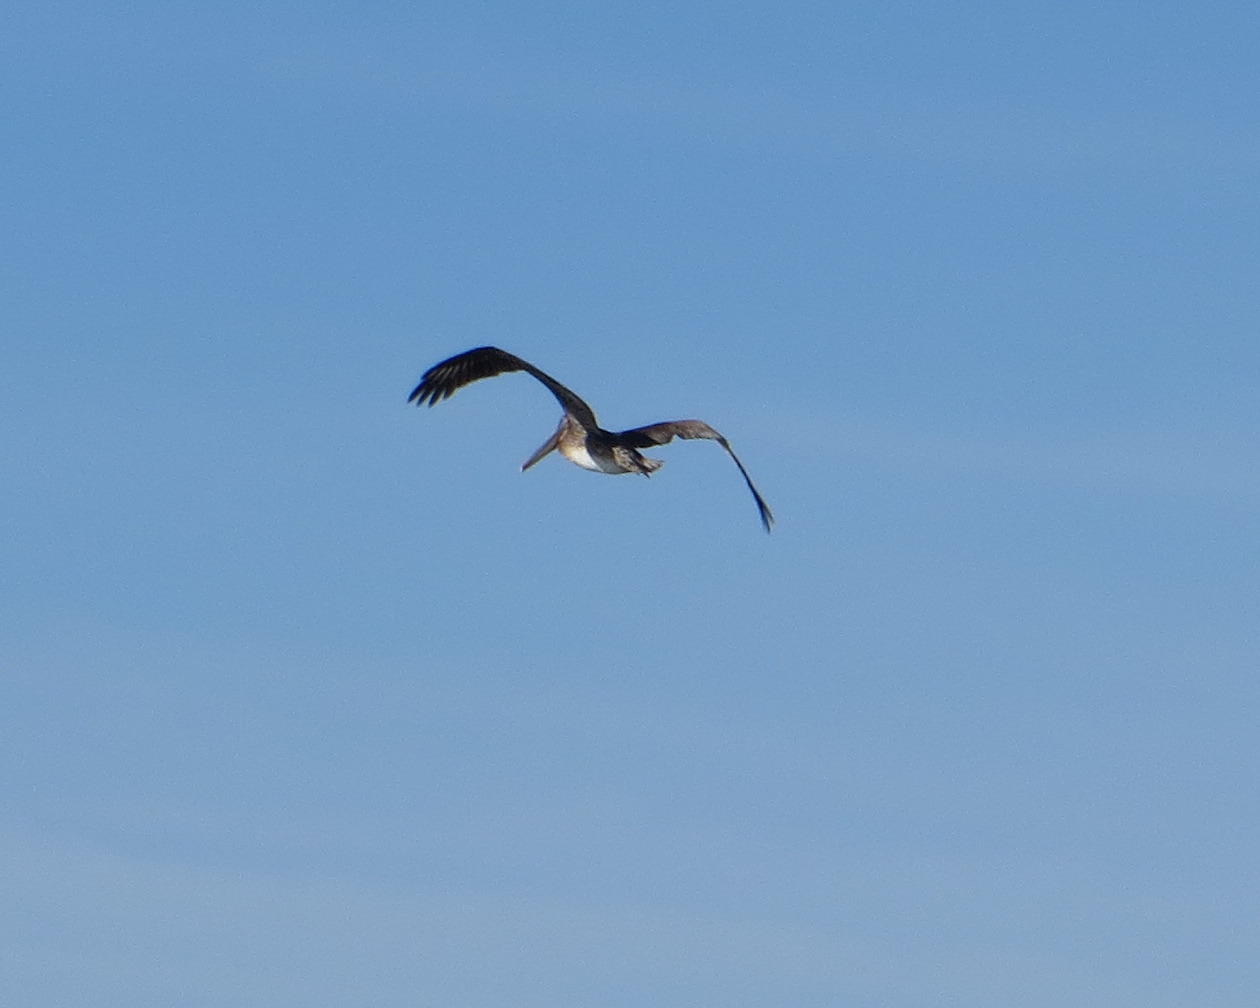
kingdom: Animalia
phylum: Chordata
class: Aves
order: Pelecaniformes
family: Pelecanidae
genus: Pelecanus
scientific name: Pelecanus occidentalis
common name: Brown pelican
